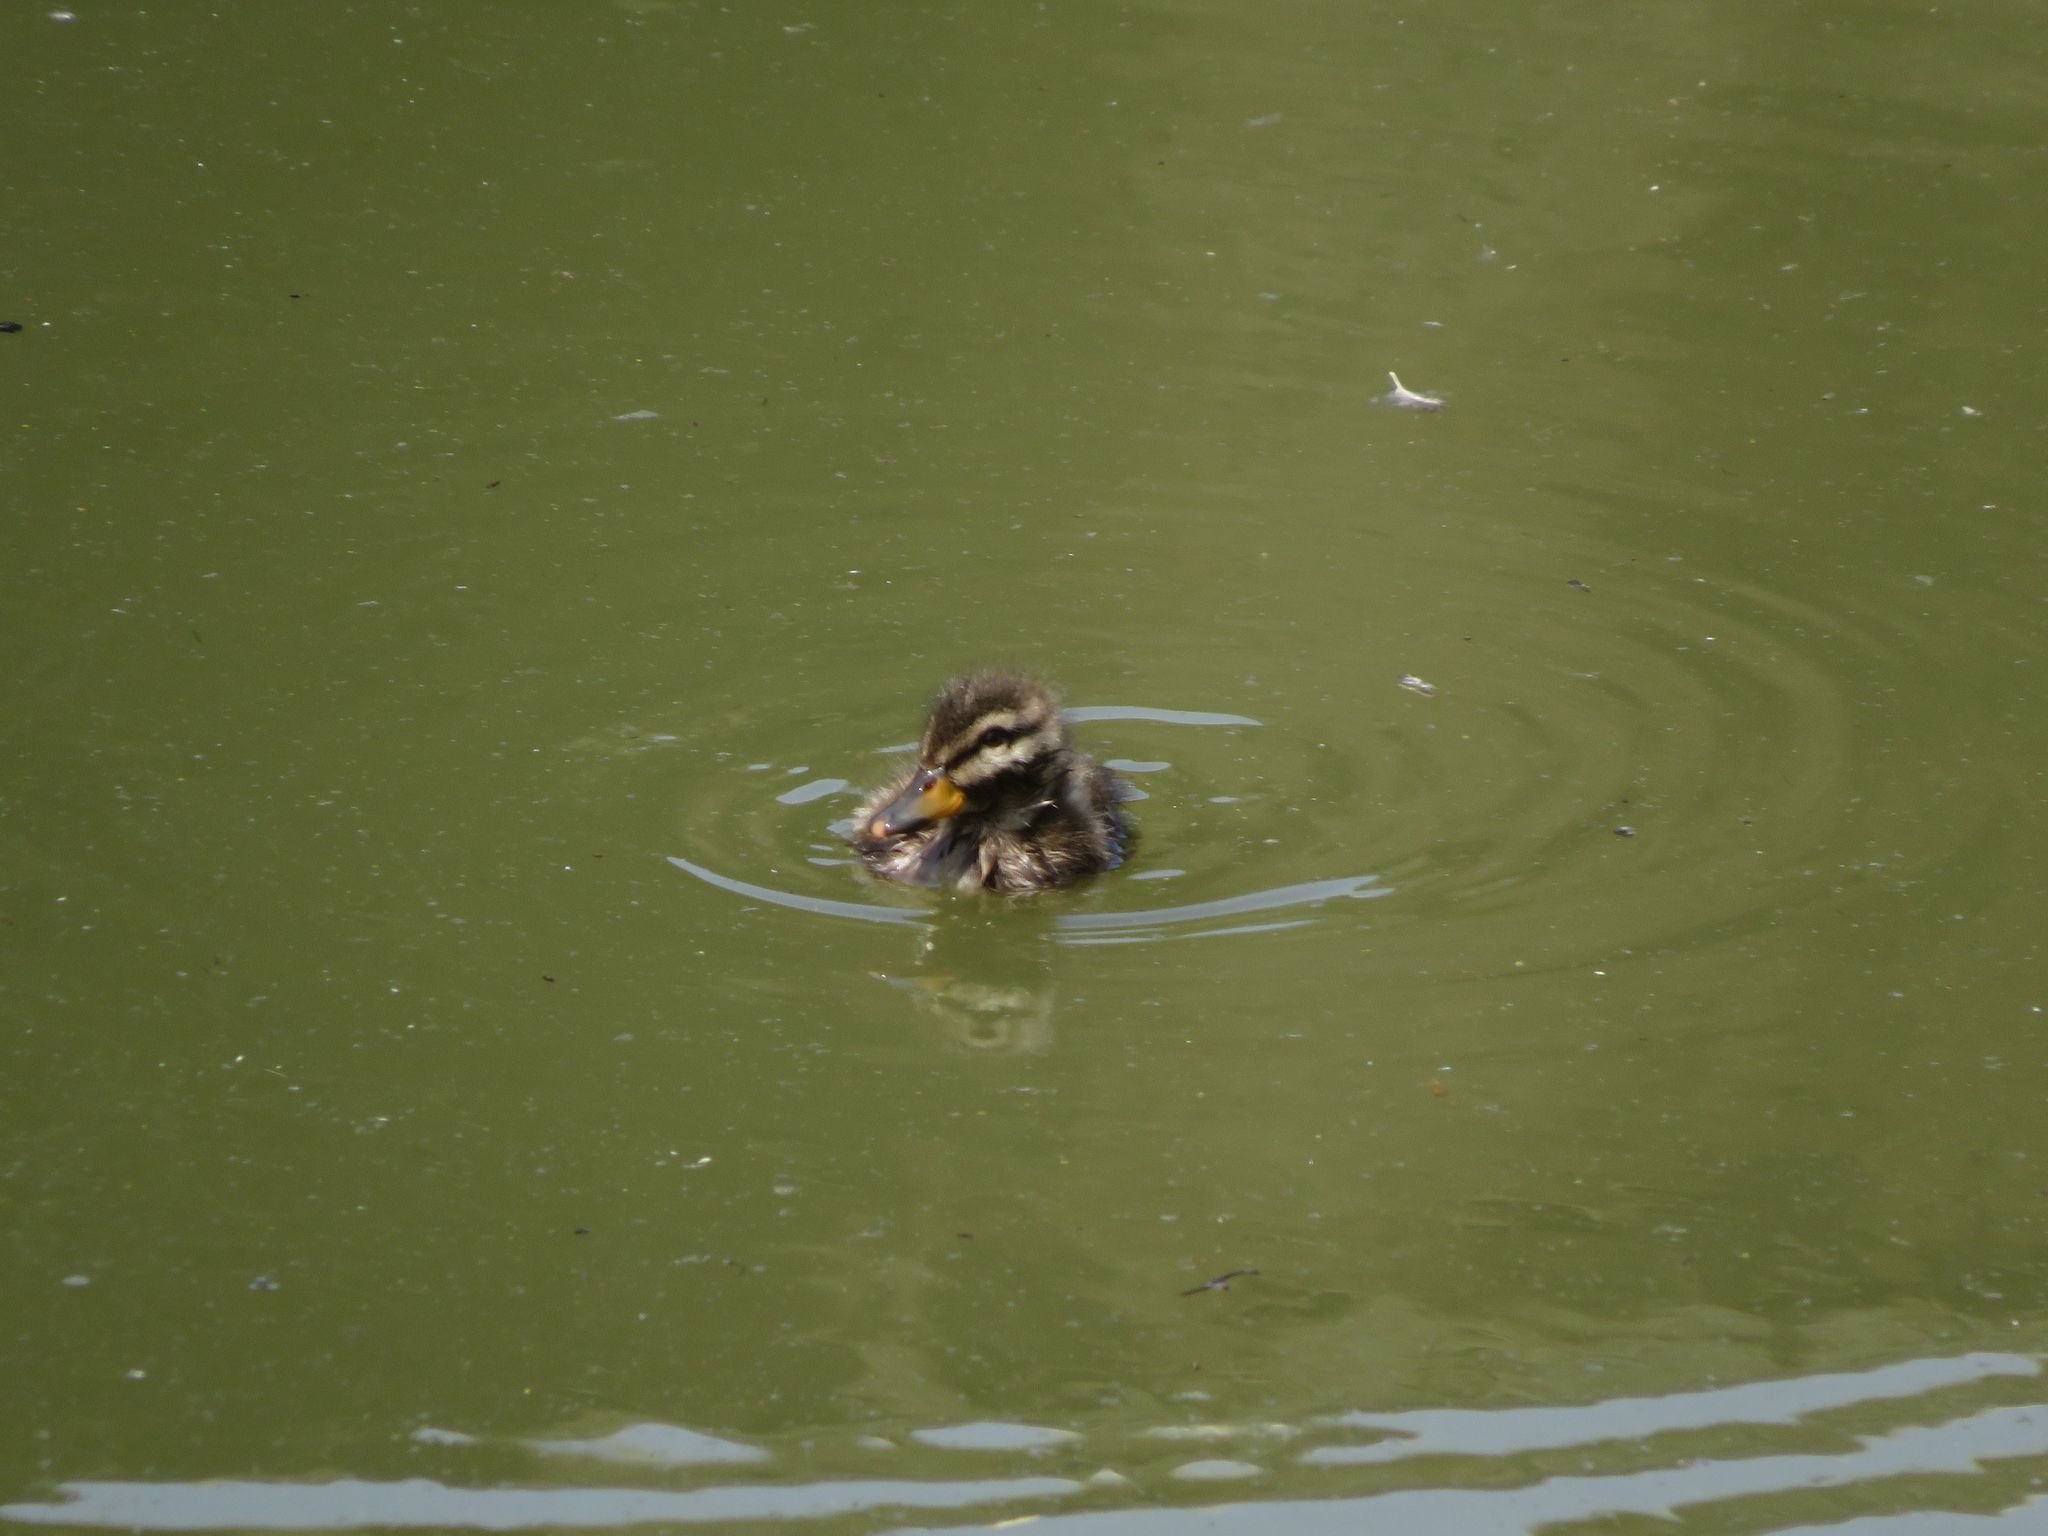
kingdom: Animalia
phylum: Chordata
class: Aves
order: Anseriformes
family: Anatidae
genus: Anas
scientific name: Anas flavirostris
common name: Yellow-billed teal
